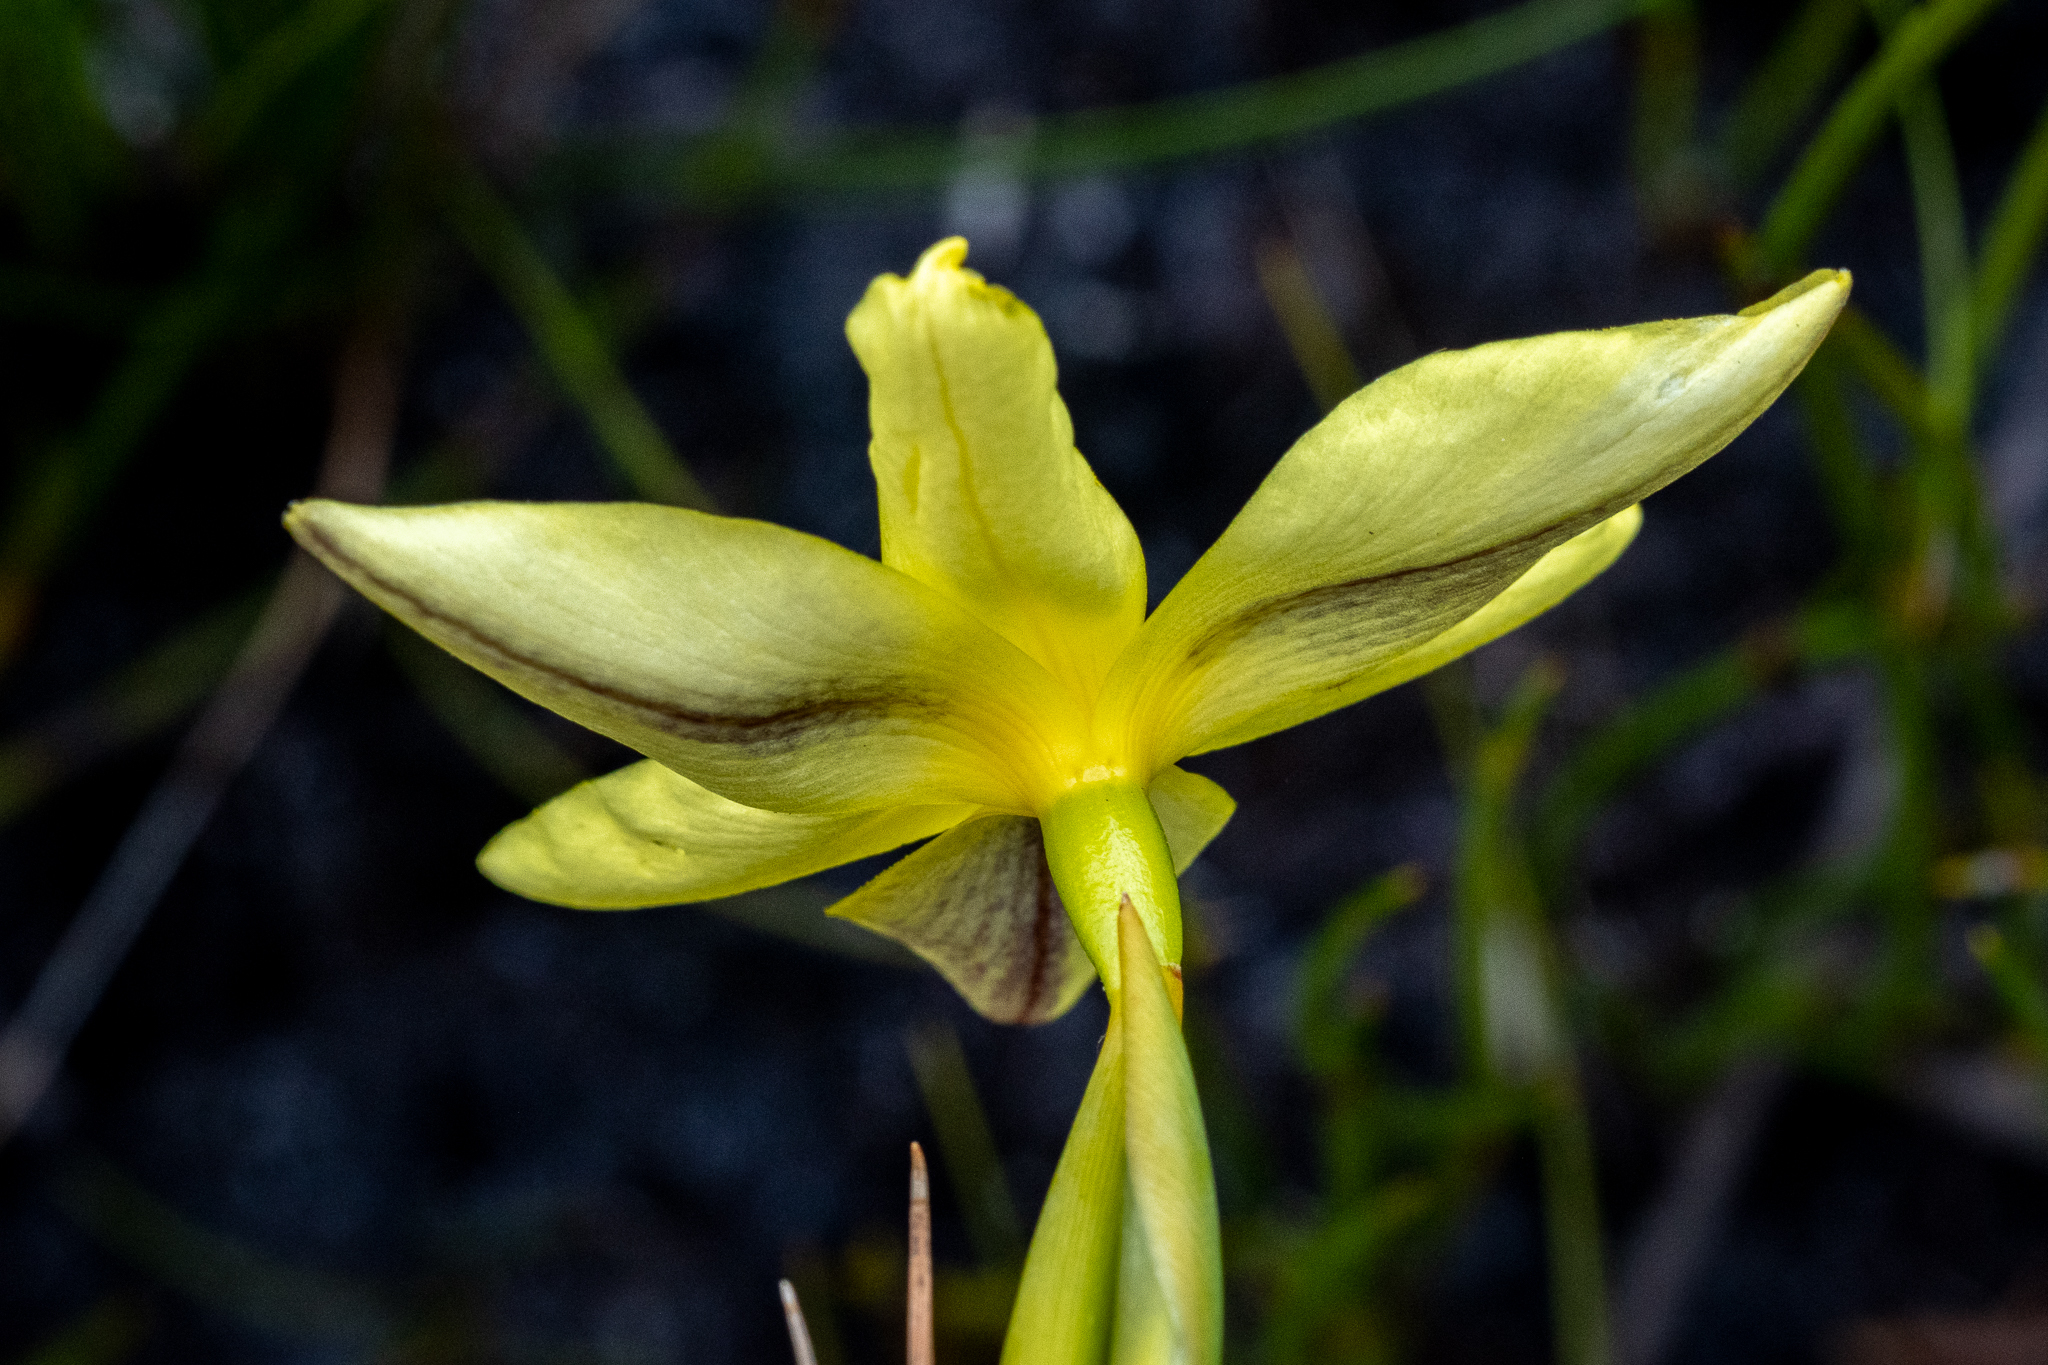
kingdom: Plantae
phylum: Tracheophyta
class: Liliopsida
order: Asparagales
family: Iridaceae
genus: Bobartia
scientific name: Bobartia indica
